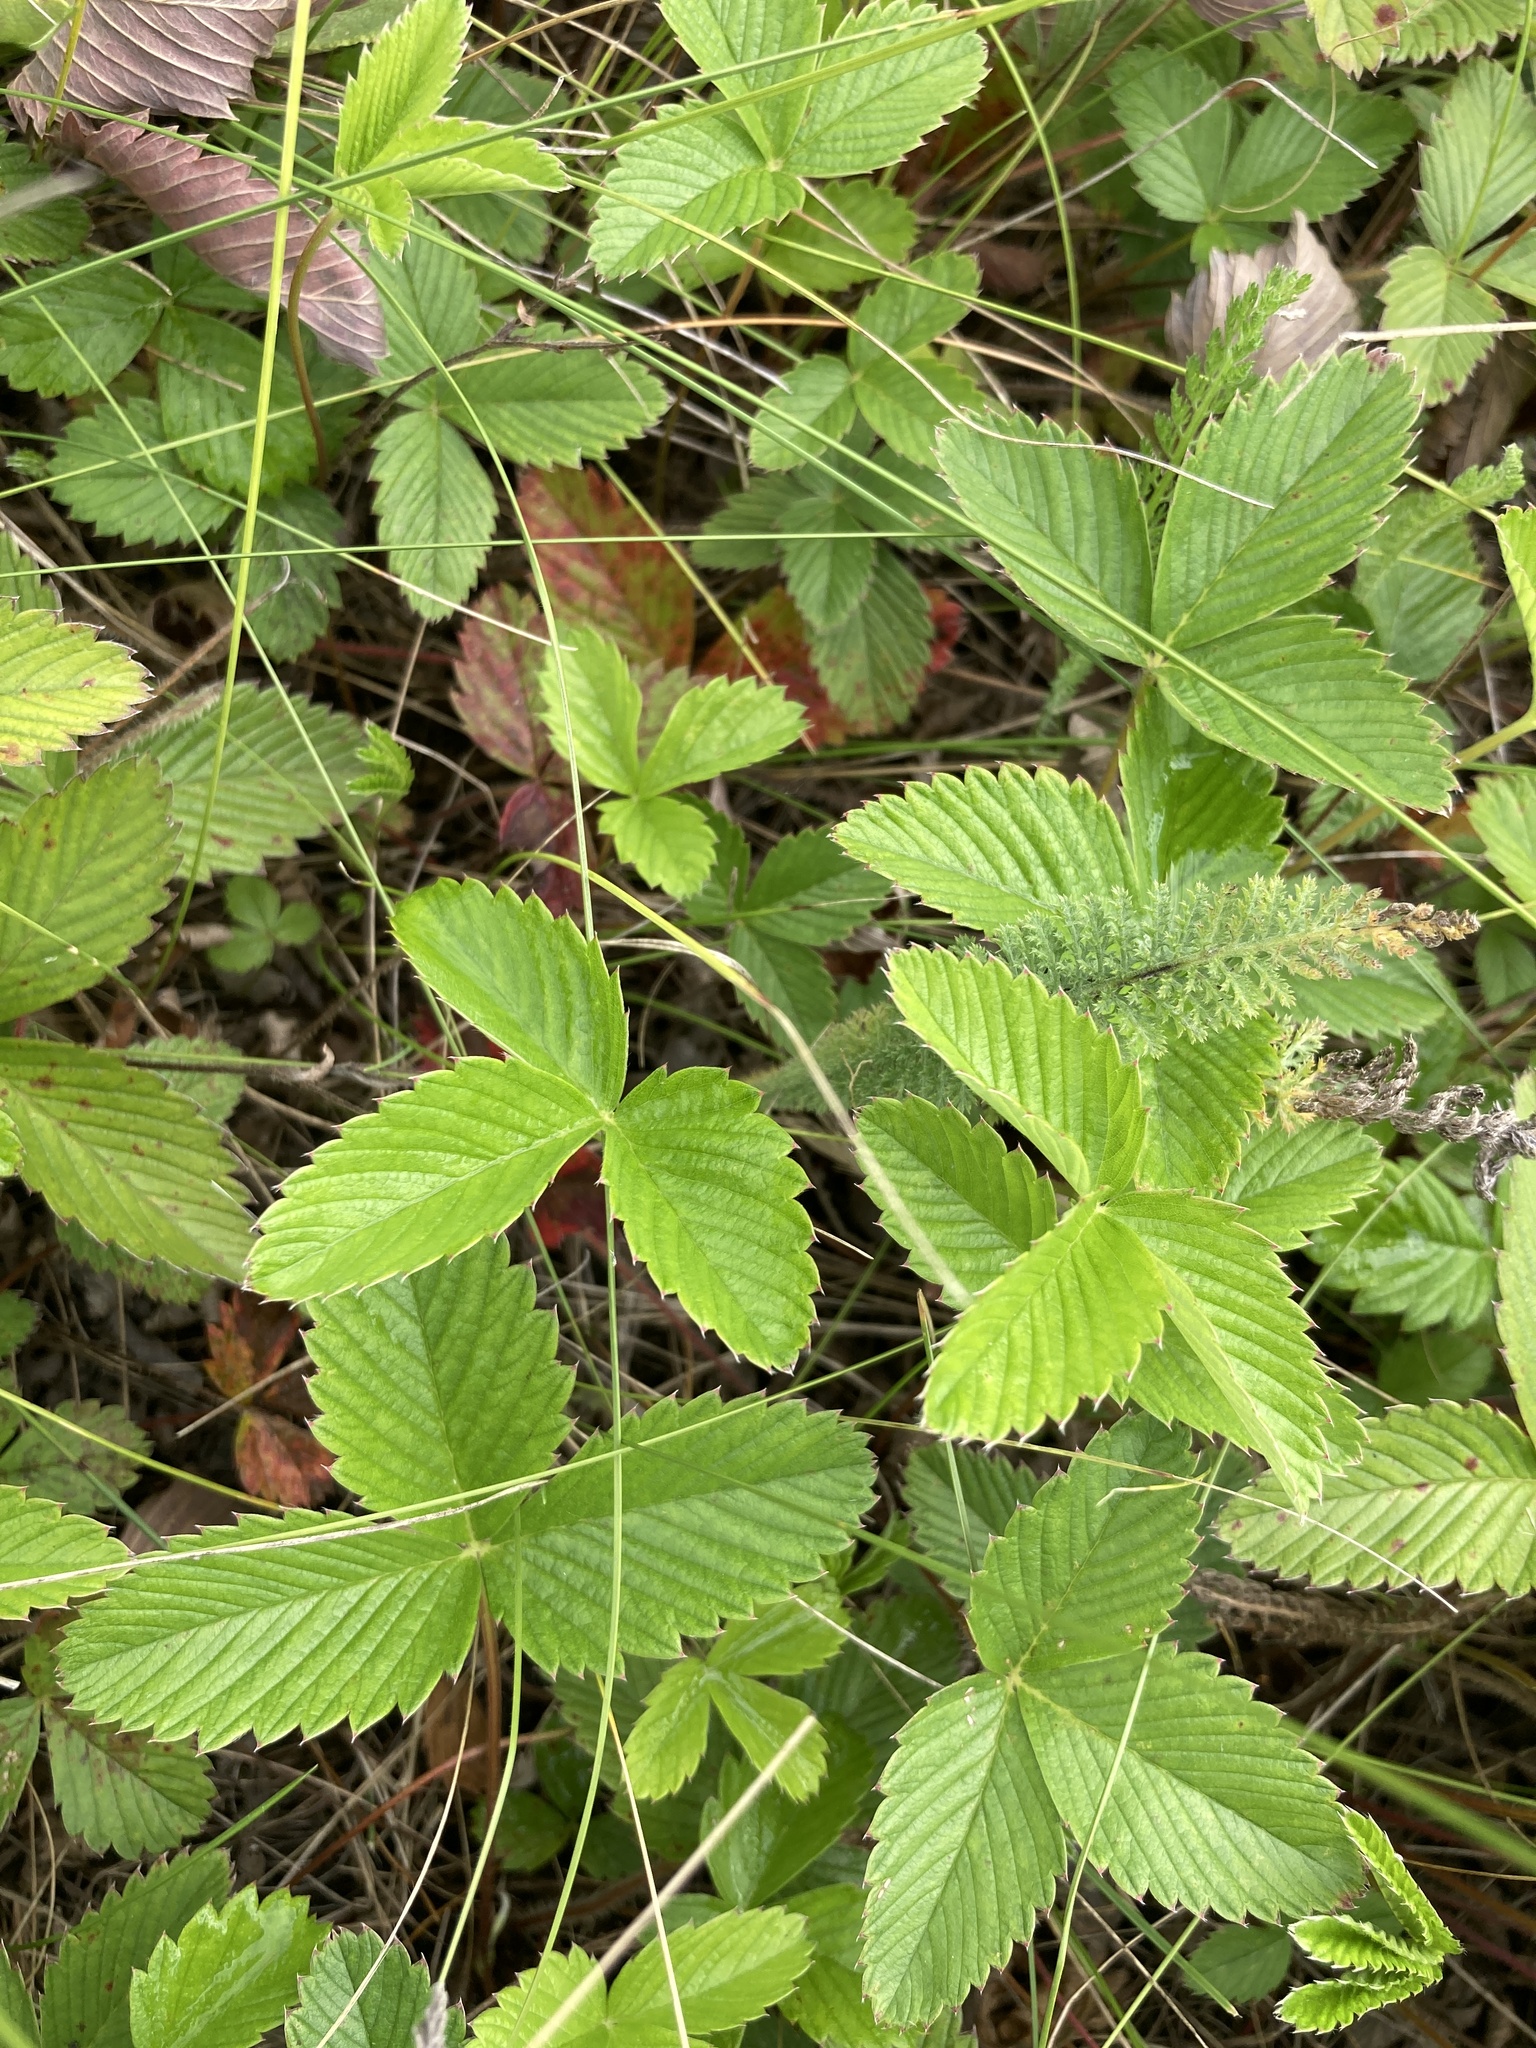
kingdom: Plantae
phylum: Tracheophyta
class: Magnoliopsida
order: Rosales
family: Rosaceae
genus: Fragaria
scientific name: Fragaria viridis
